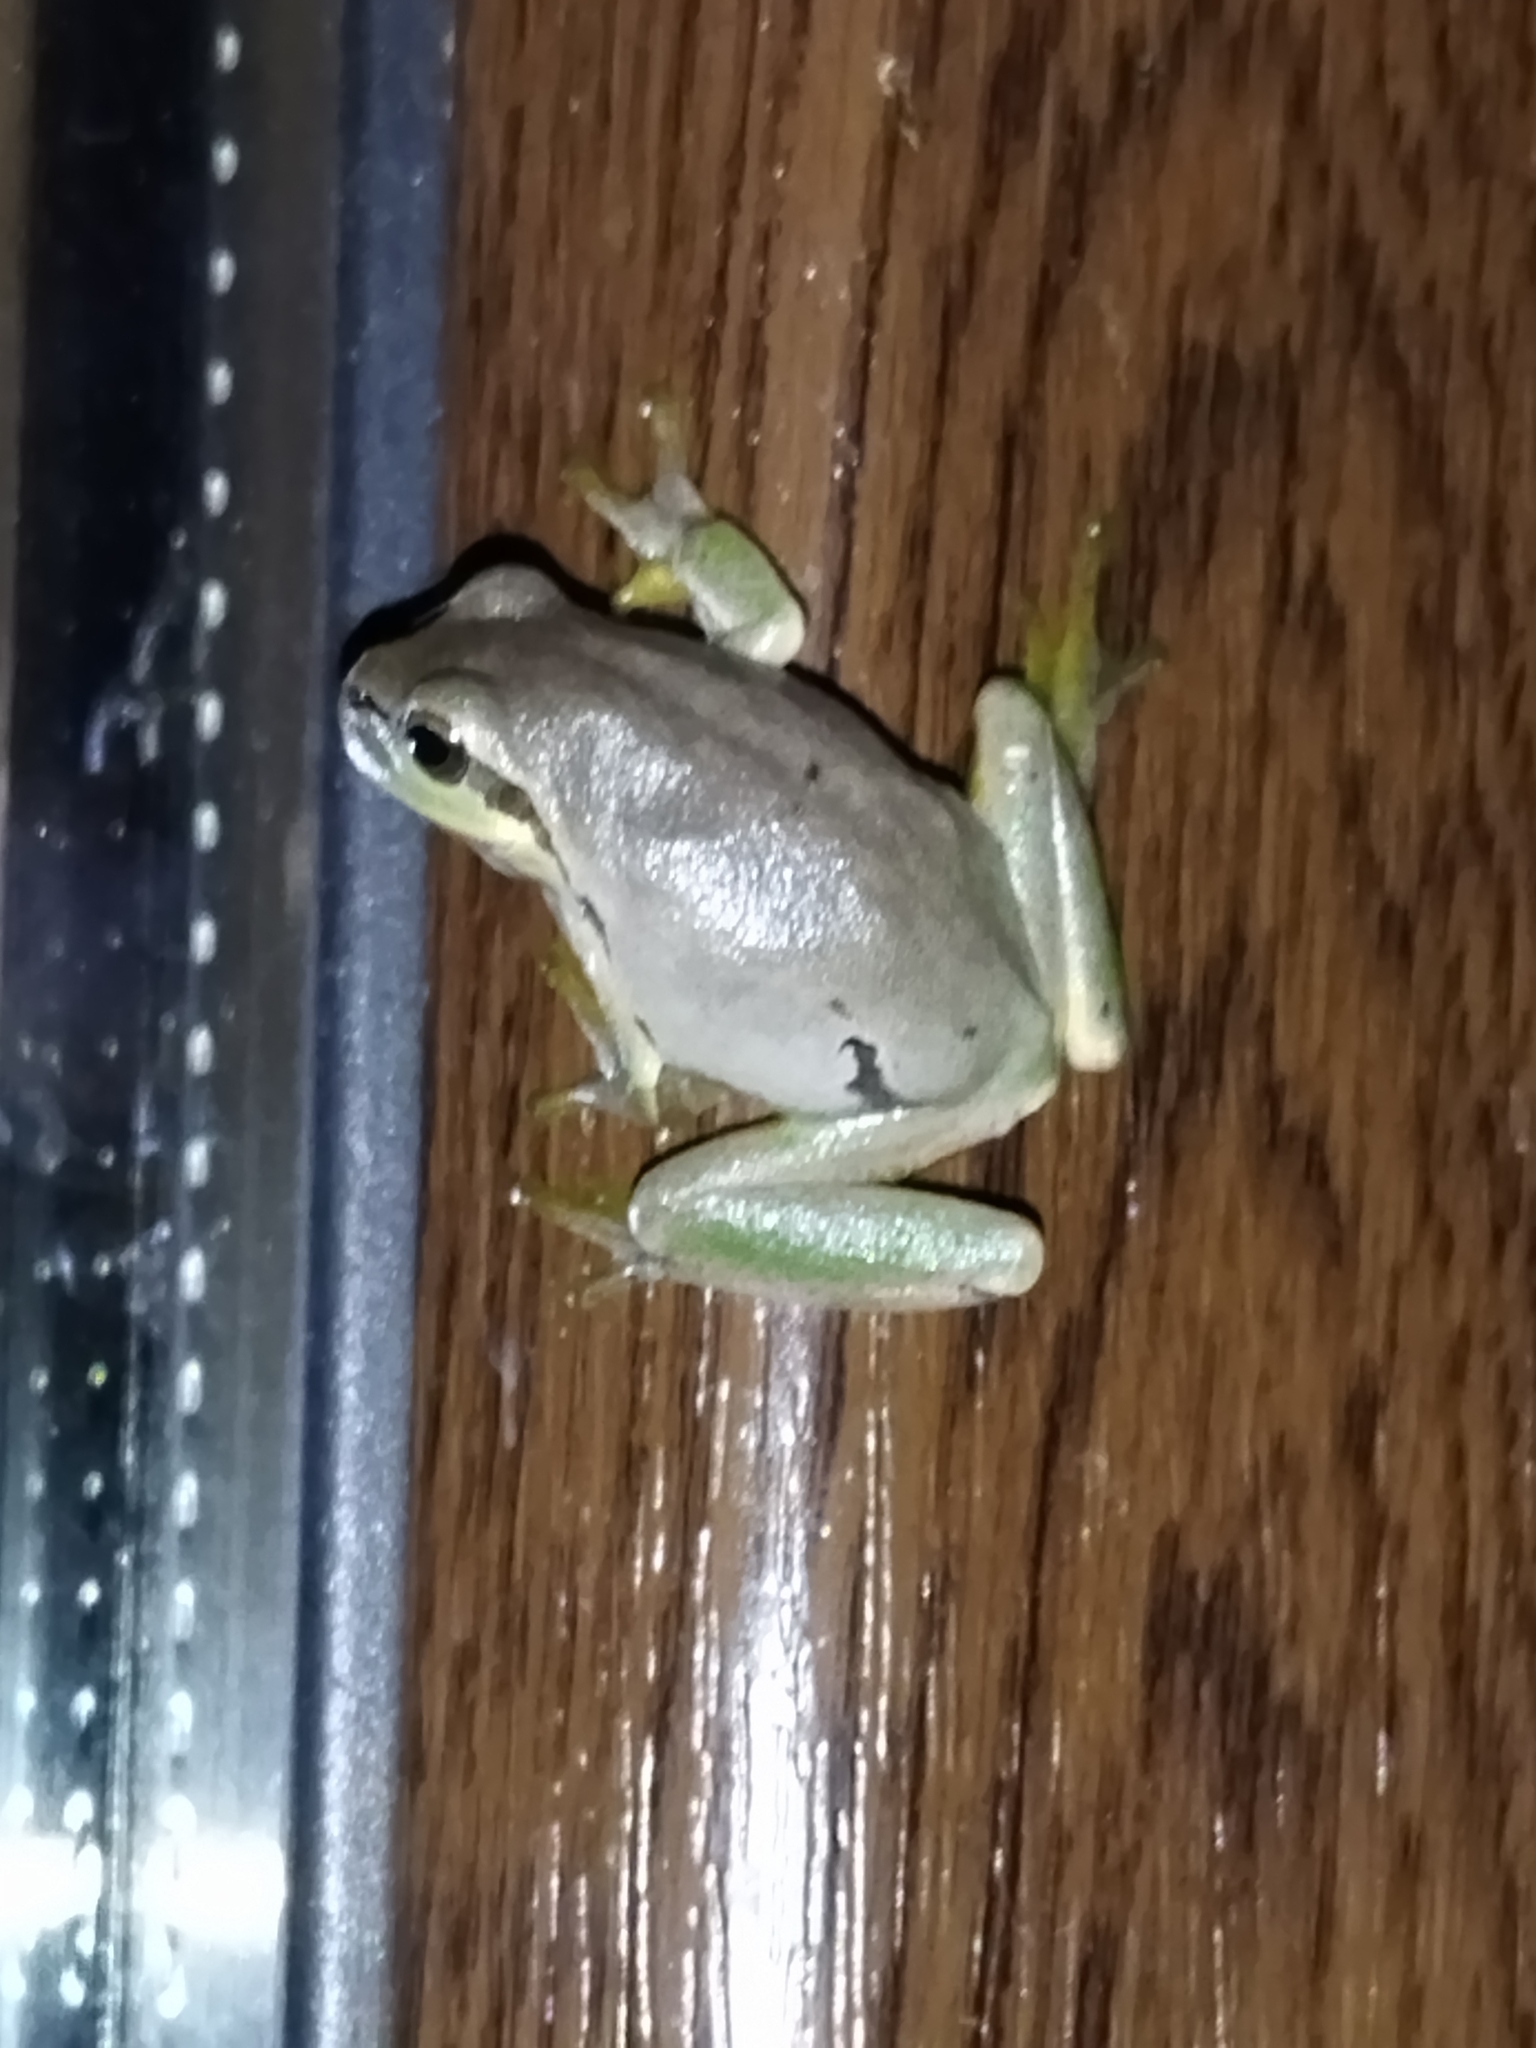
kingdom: Animalia
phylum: Chordata
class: Amphibia
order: Anura
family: Hylidae
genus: Hyla
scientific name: Hyla orientalis
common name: Caucasian treefrog
